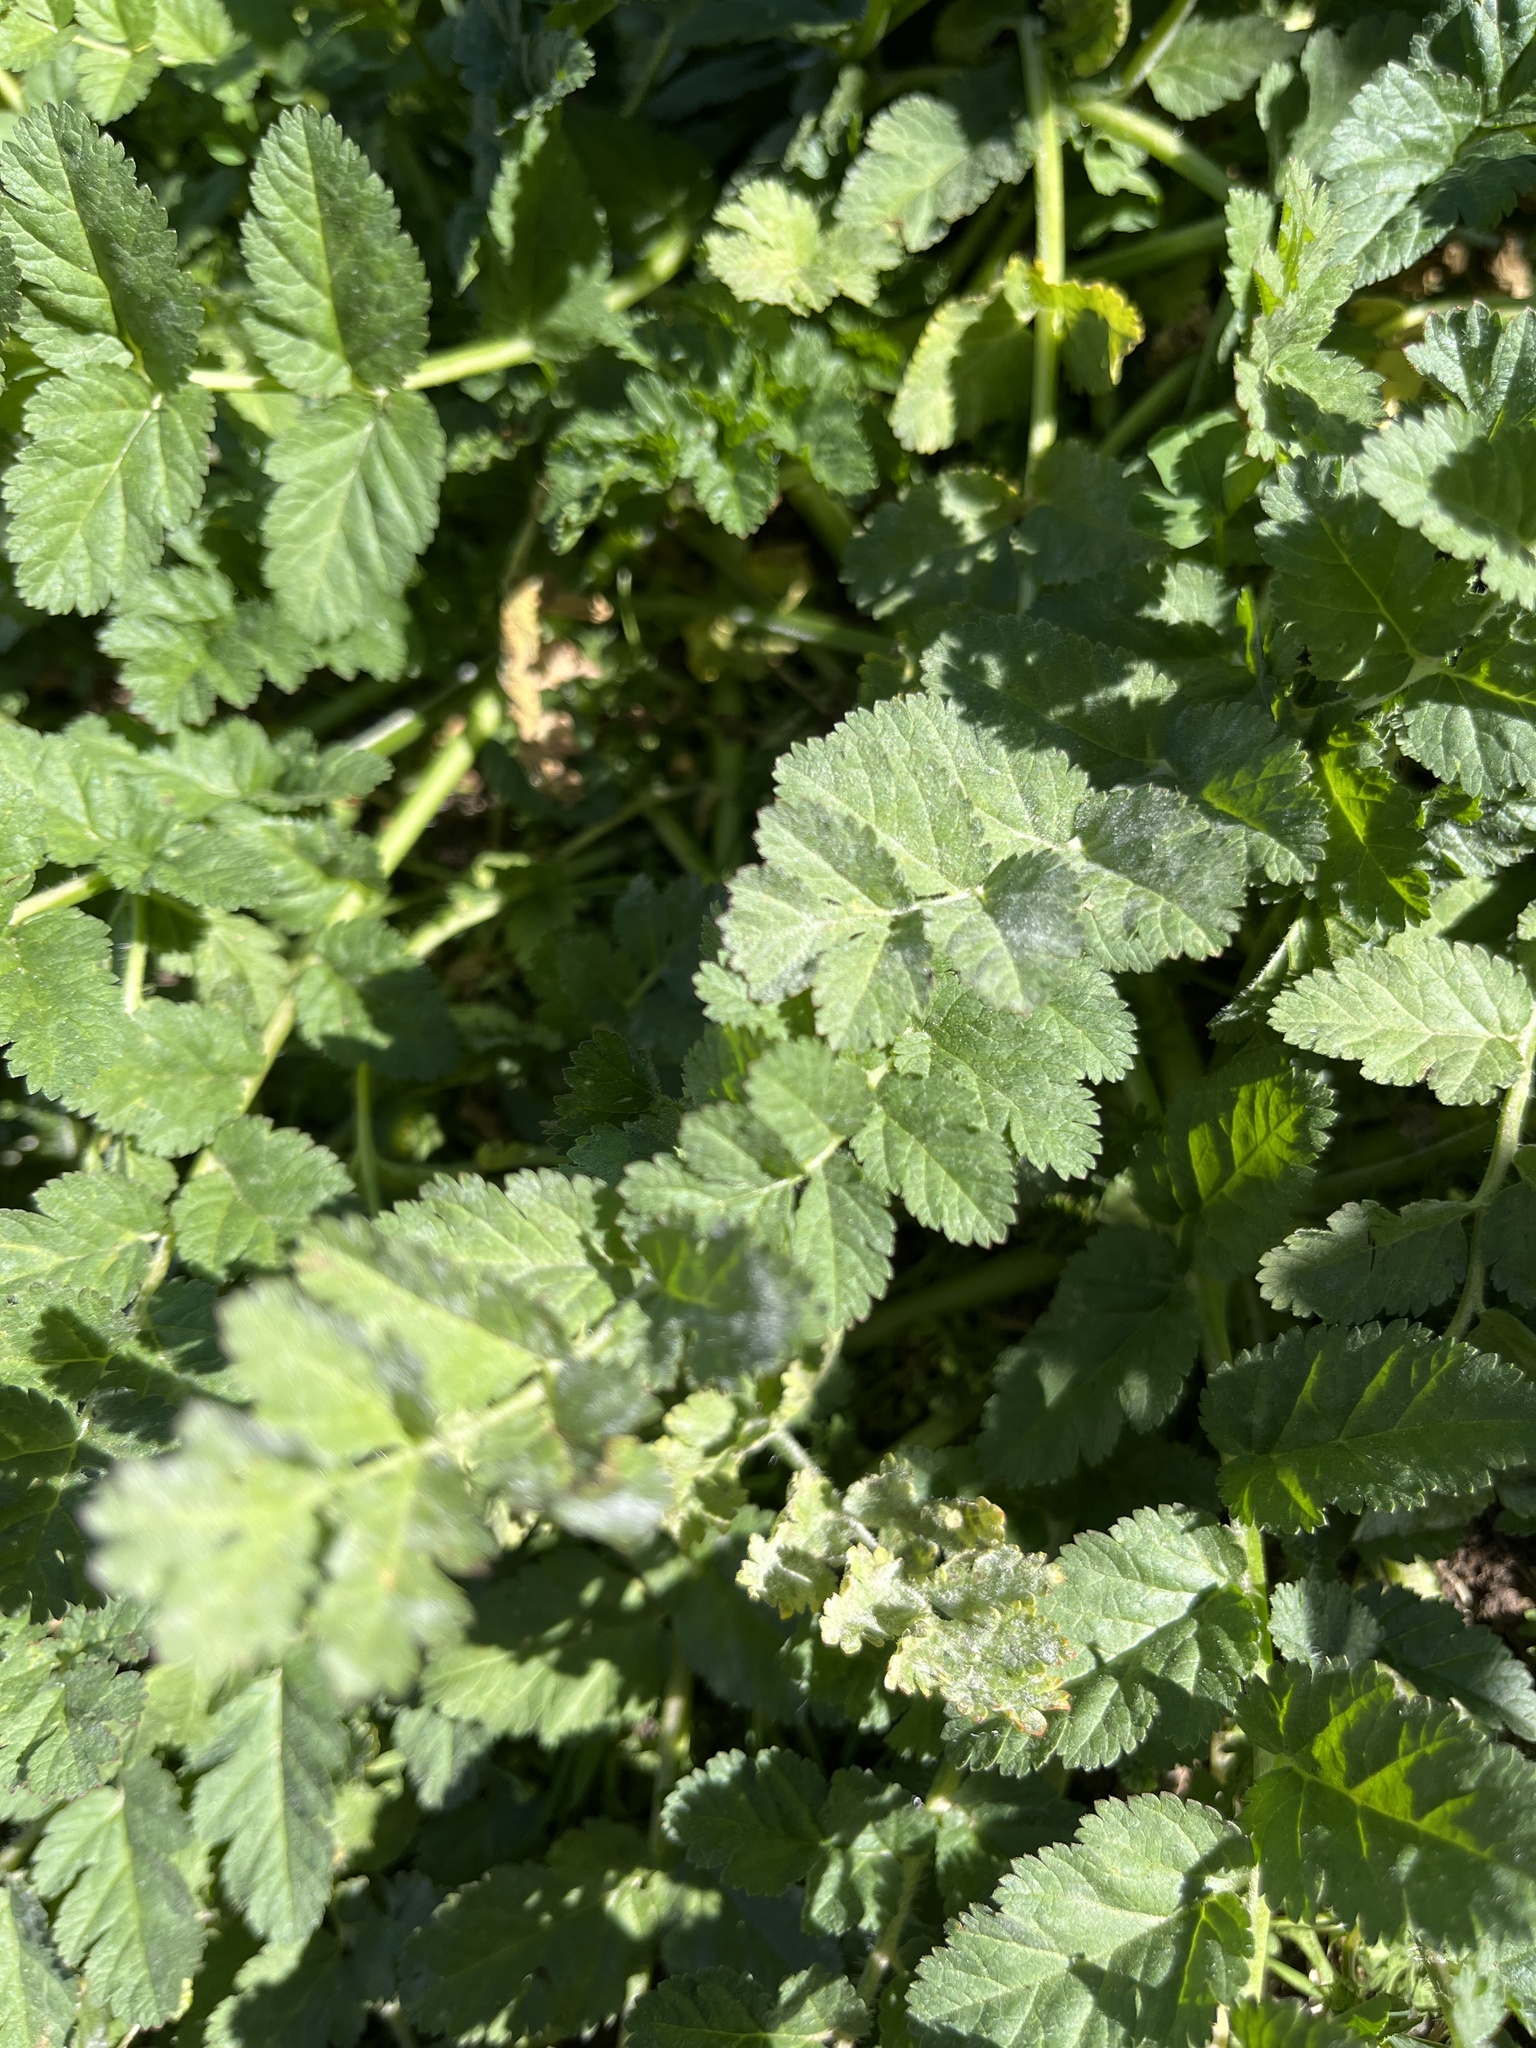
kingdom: Plantae
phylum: Tracheophyta
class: Magnoliopsida
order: Geraniales
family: Geraniaceae
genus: Erodium
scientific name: Erodium moschatum
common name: Musk stork's-bill
